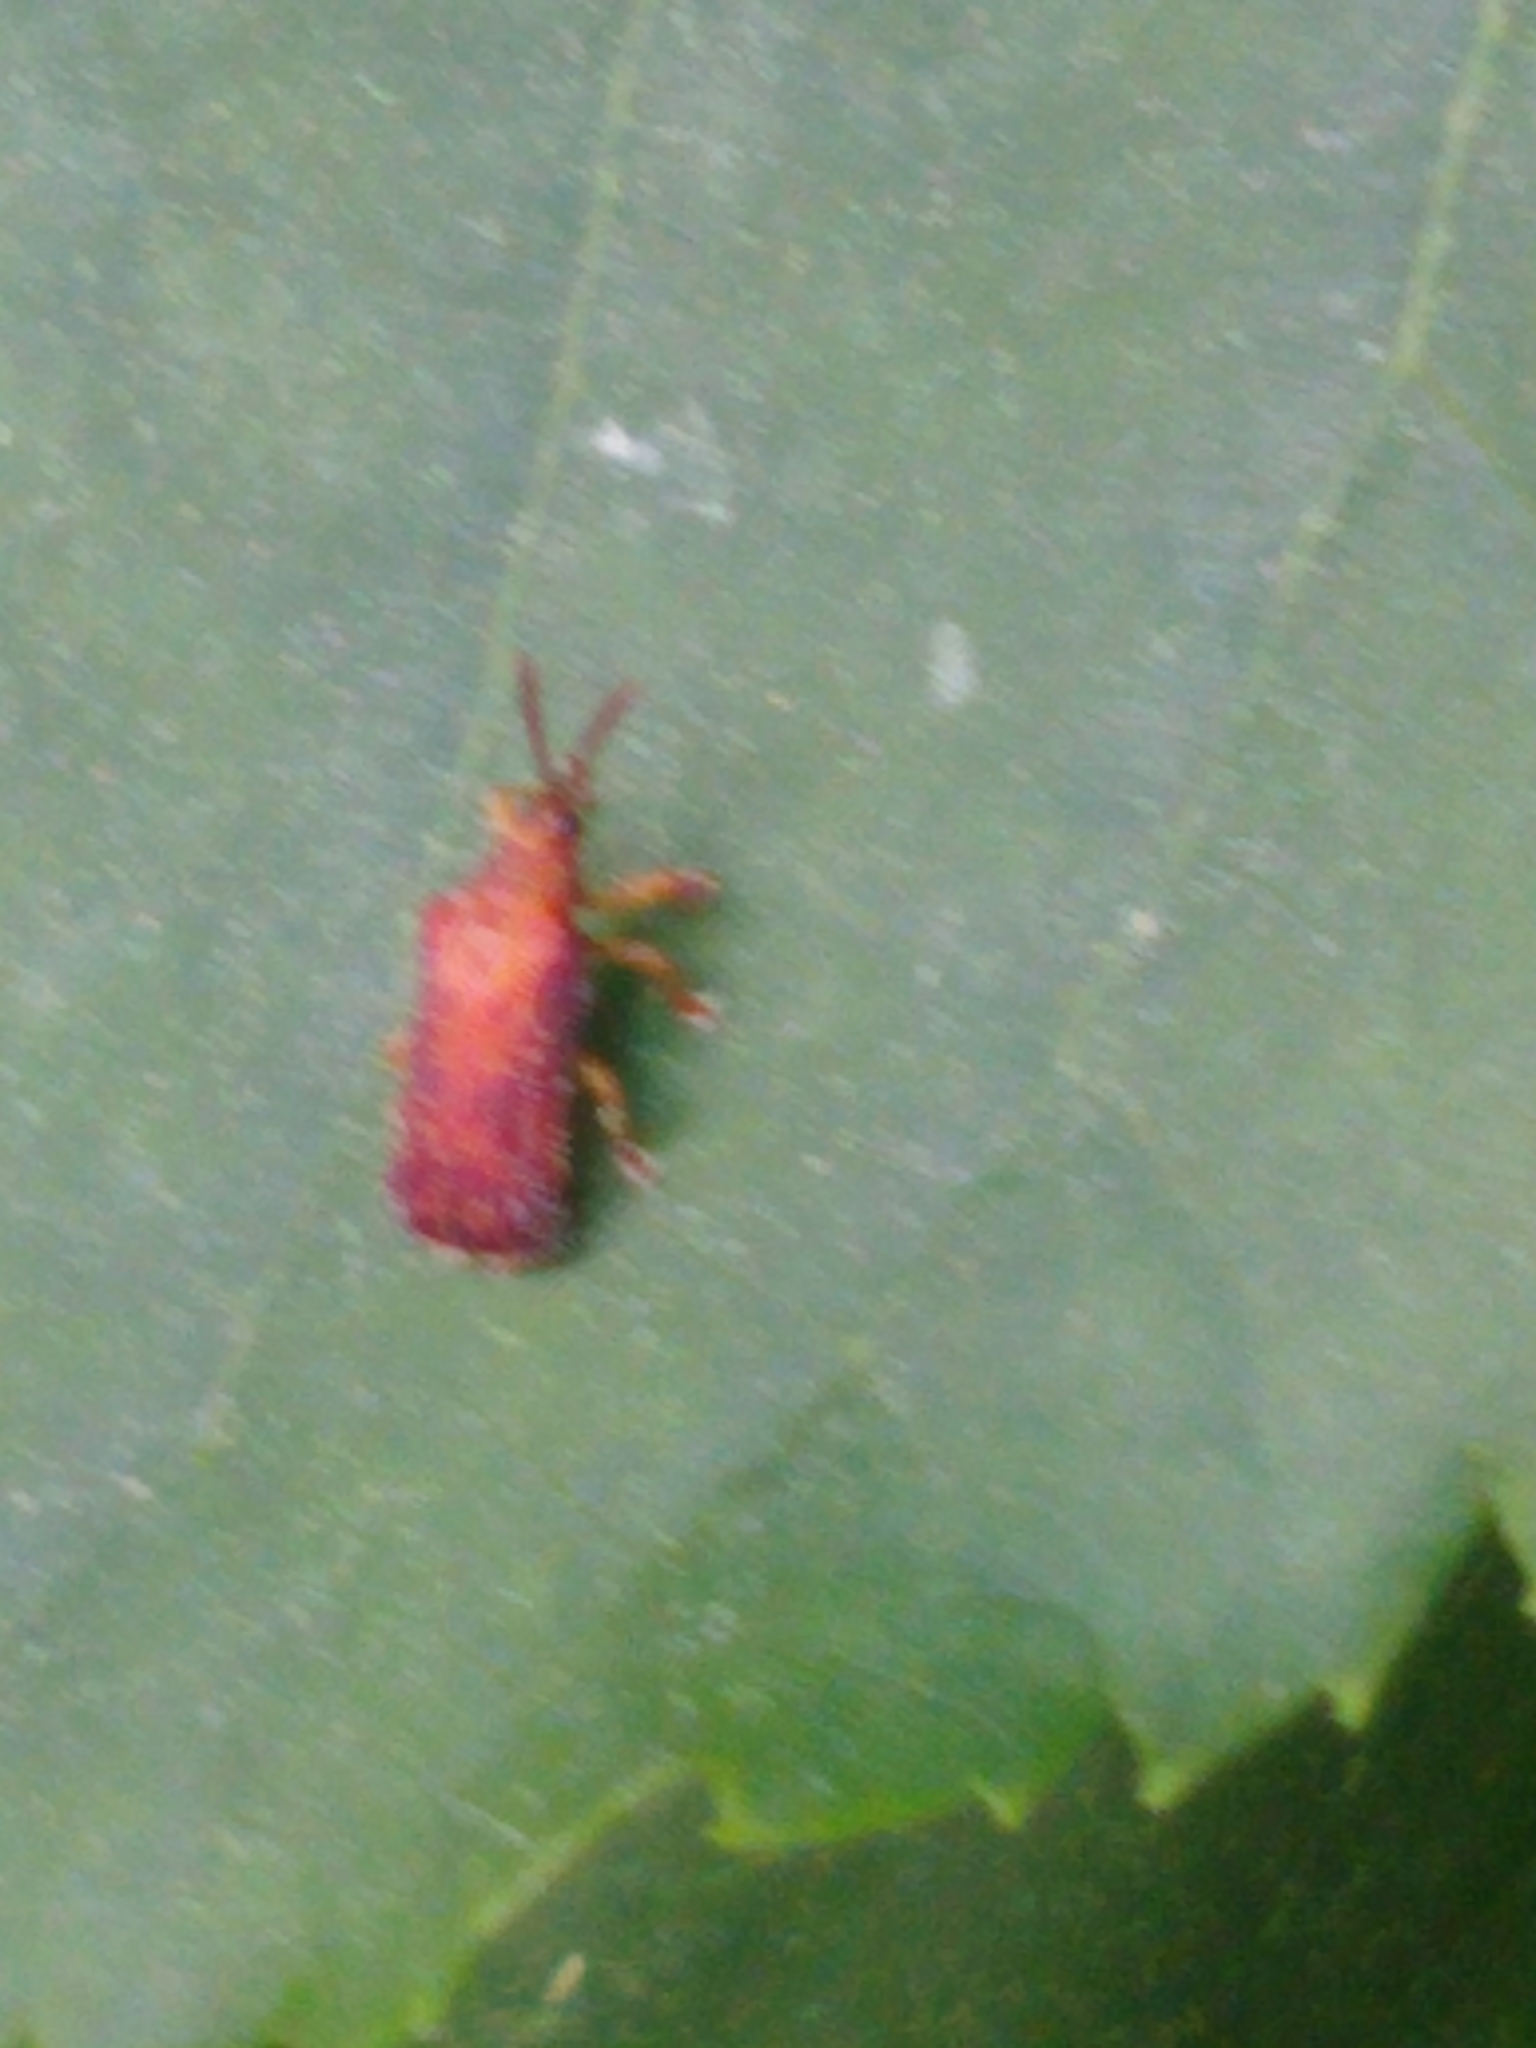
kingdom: Animalia
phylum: Arthropoda
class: Insecta
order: Coleoptera
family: Chrysomelidae
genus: Baliosus
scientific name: Baliosus nervosus
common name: Basswood leaf miner
